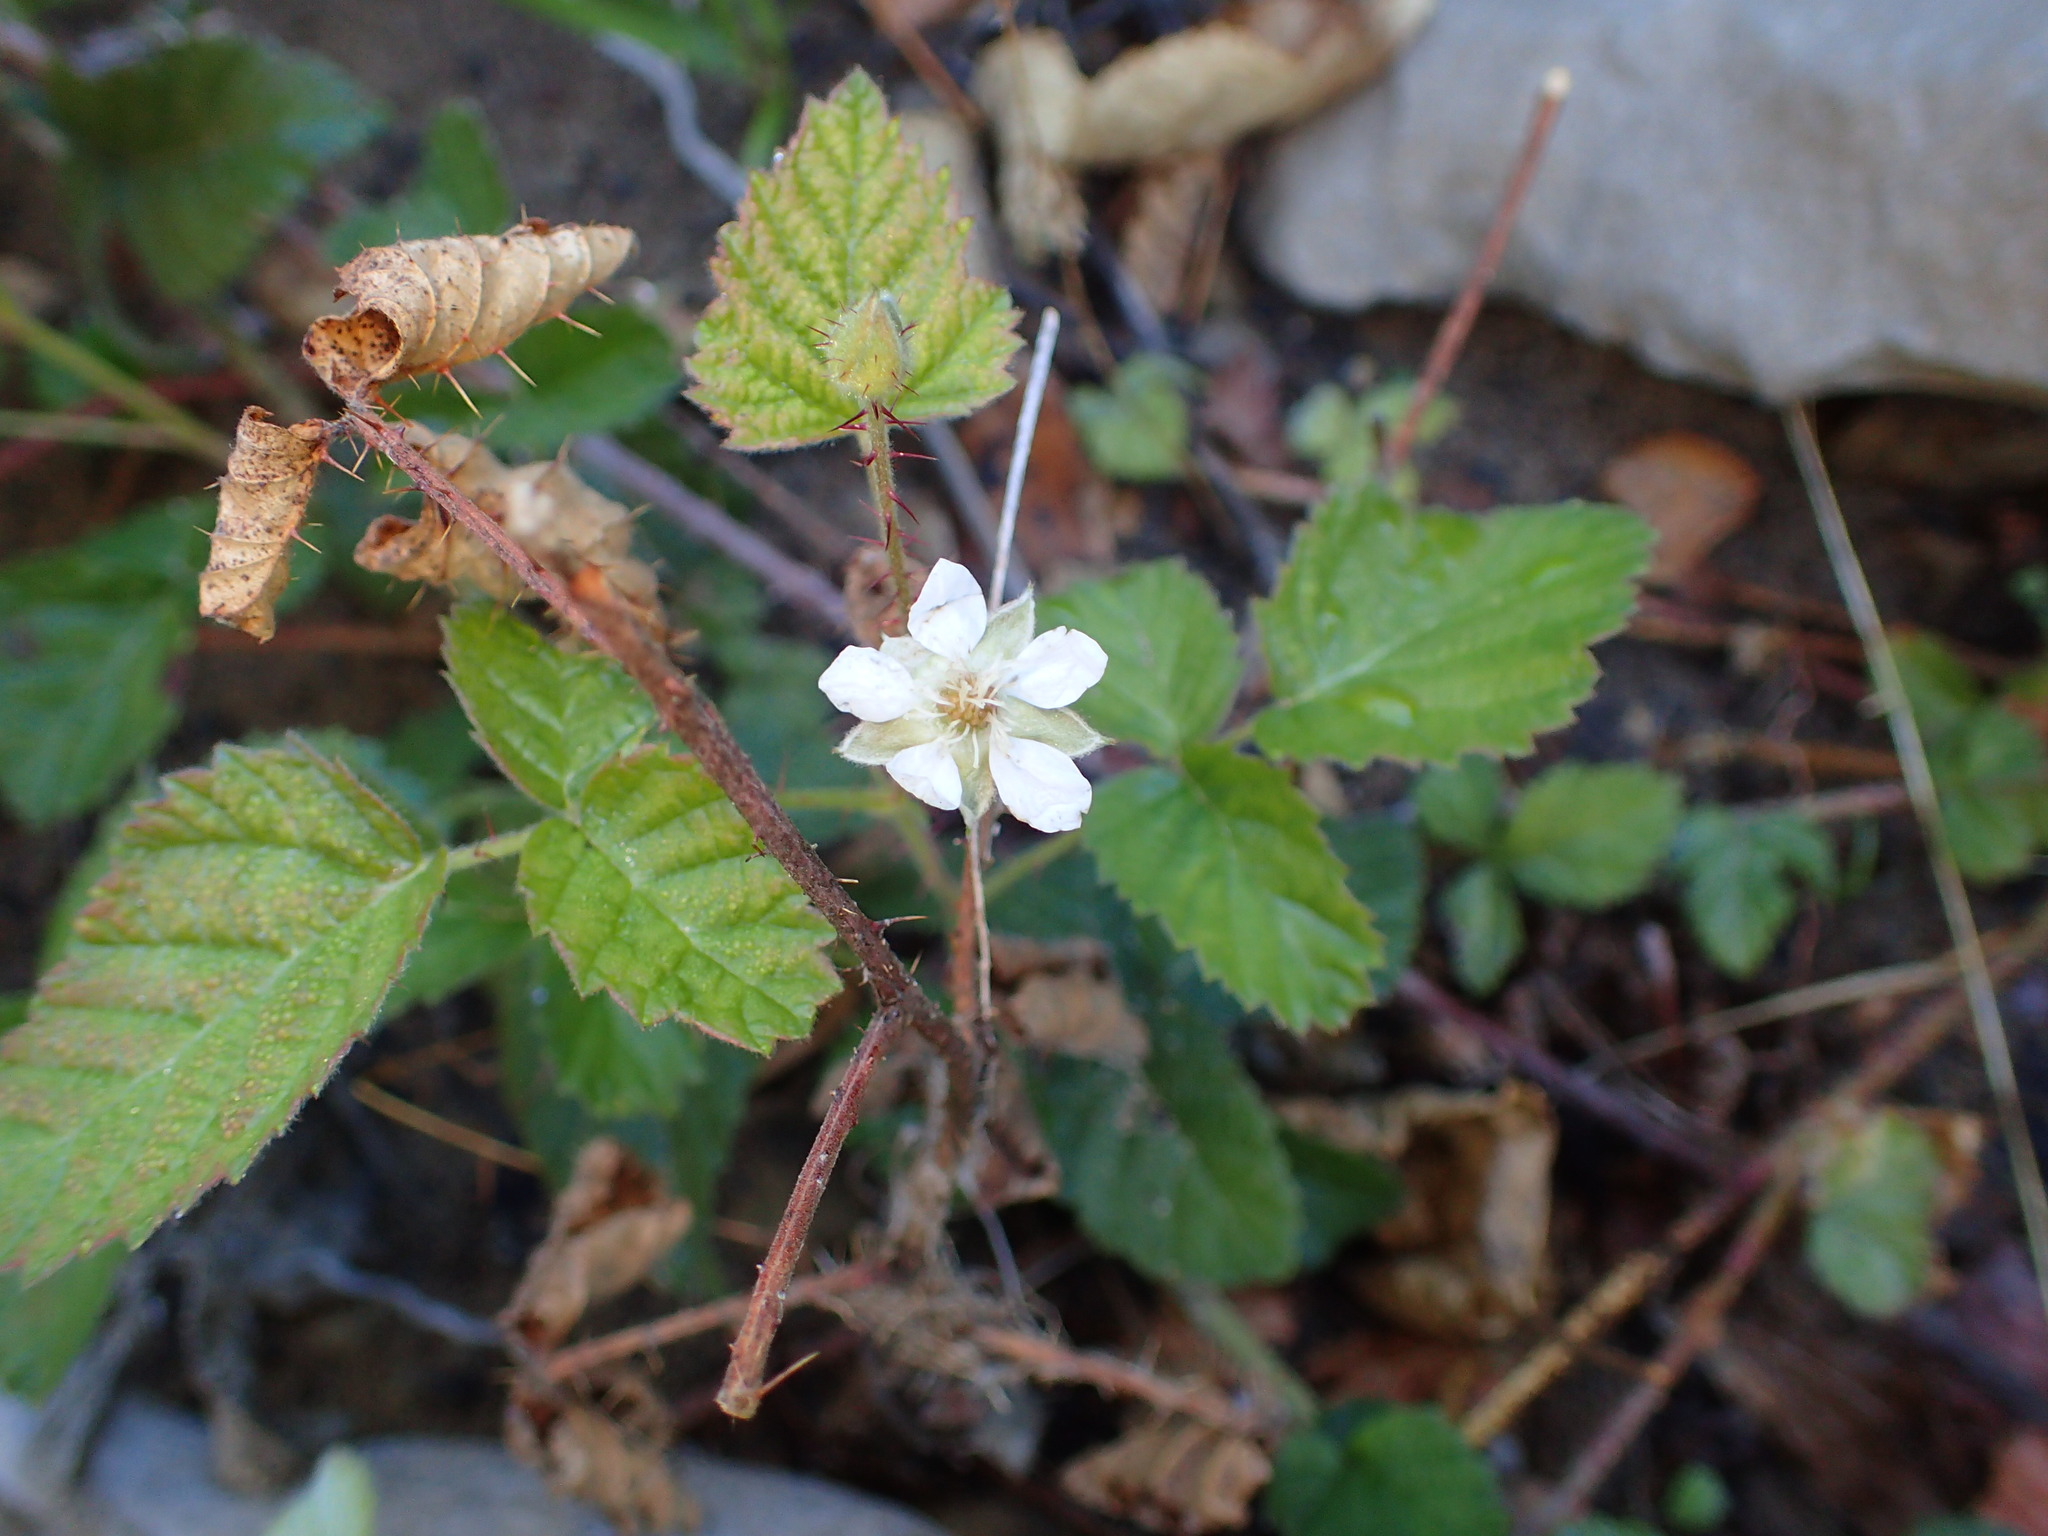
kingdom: Plantae
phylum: Tracheophyta
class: Magnoliopsida
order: Rosales
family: Rosaceae
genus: Rubus
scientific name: Rubus ursinus
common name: Pacific blackberry
